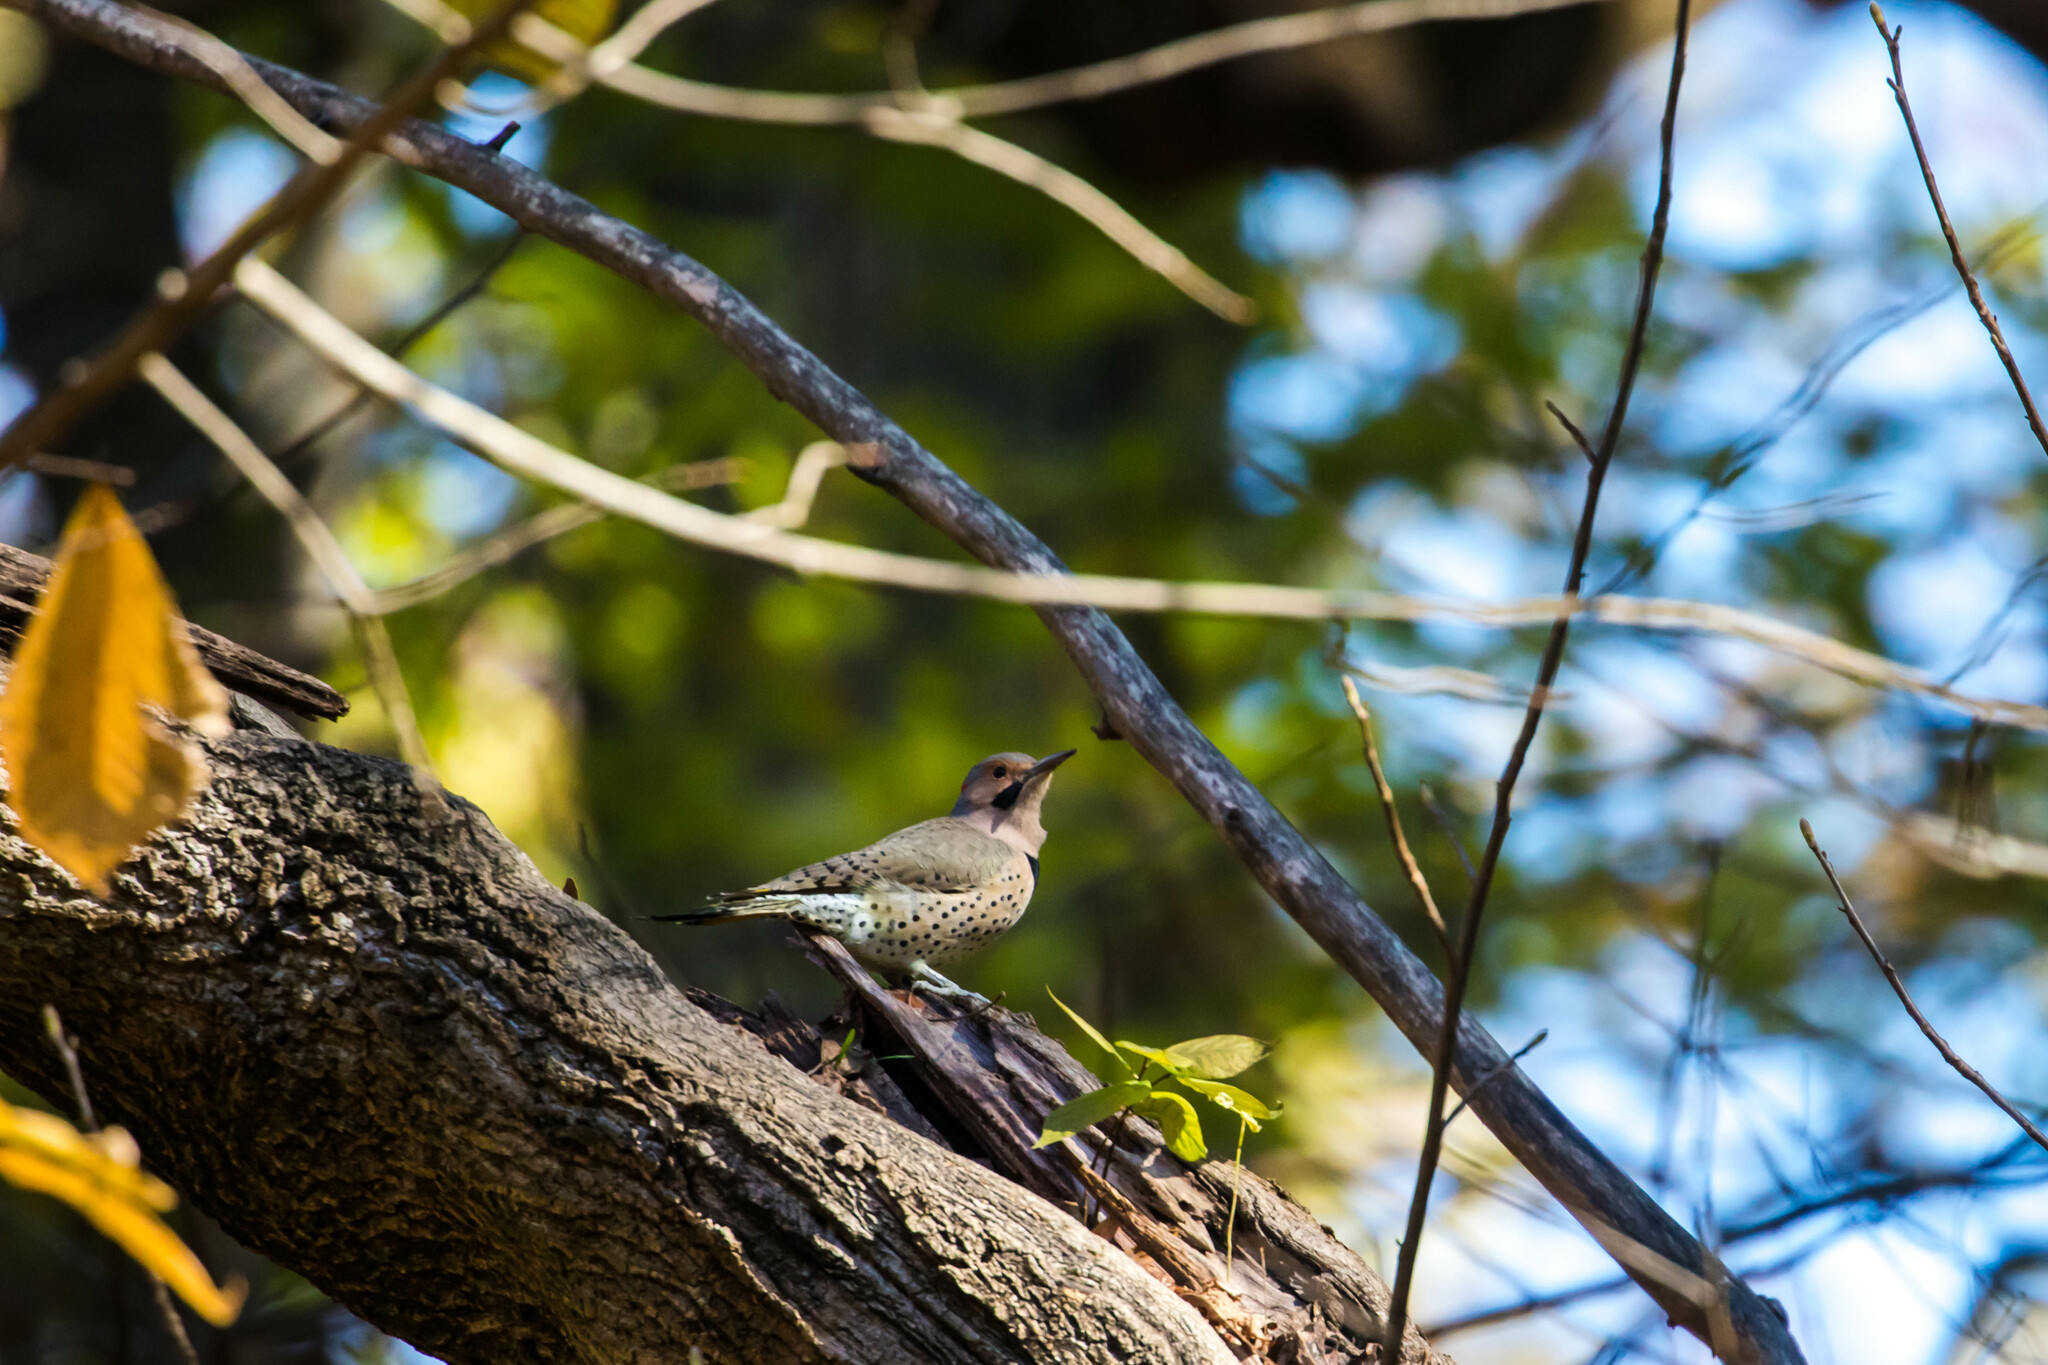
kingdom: Animalia
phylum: Chordata
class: Aves
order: Piciformes
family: Picidae
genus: Colaptes
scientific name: Colaptes auratus
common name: Northern flicker
